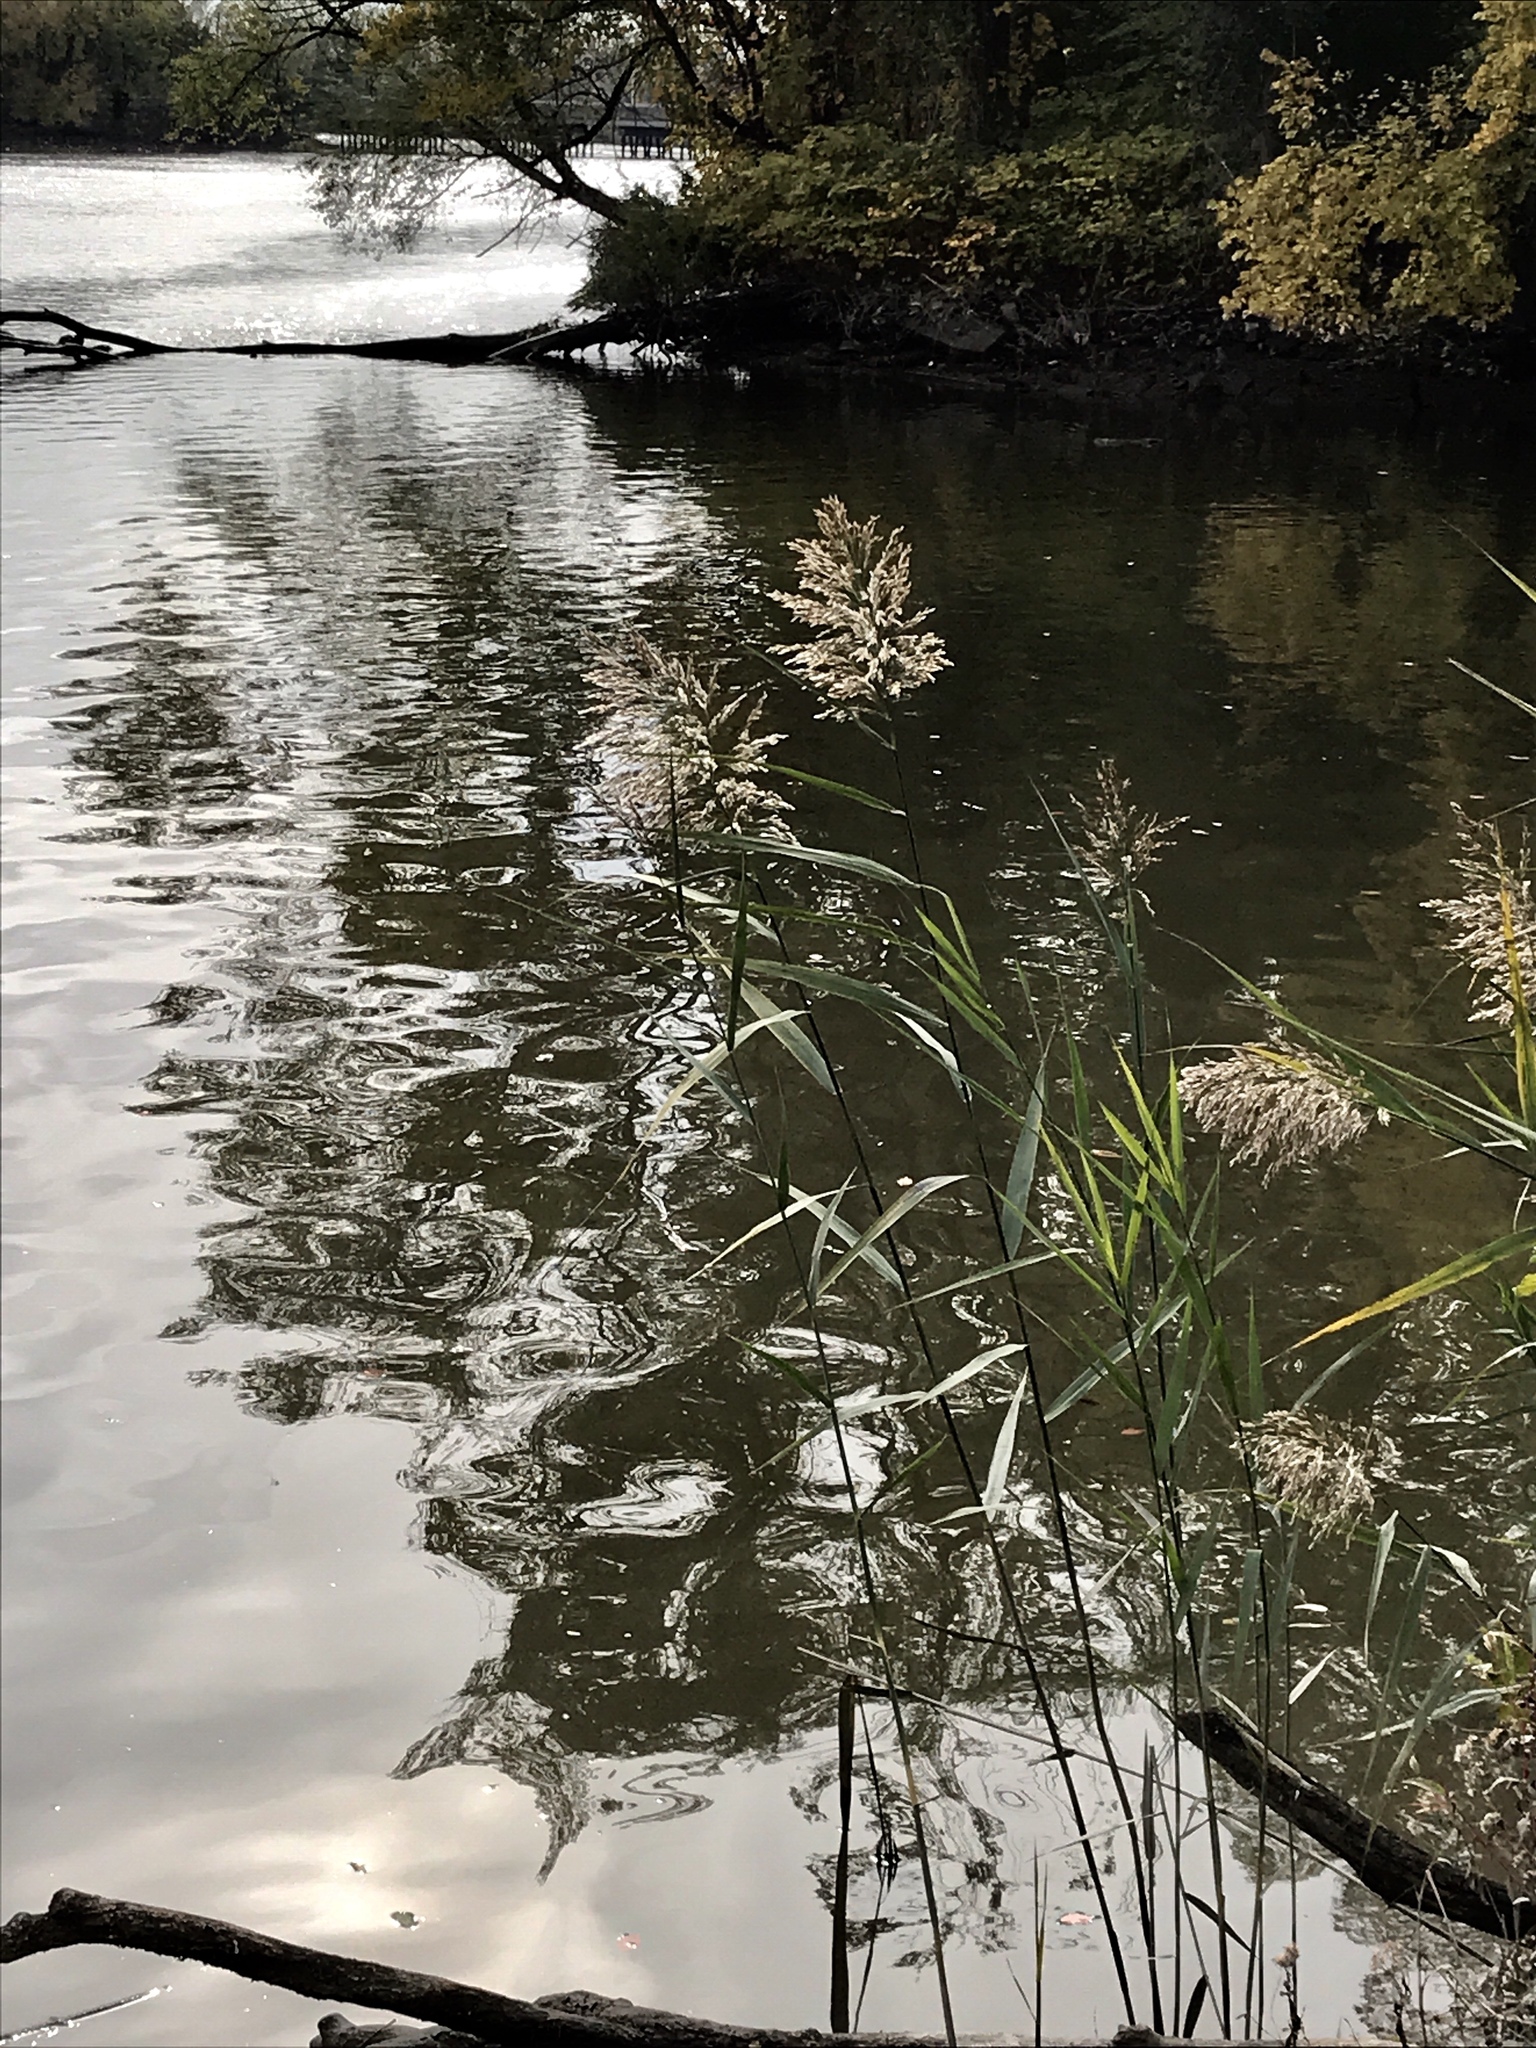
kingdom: Plantae
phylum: Tracheophyta
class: Liliopsida
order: Poales
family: Poaceae
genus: Phragmites
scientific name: Phragmites australis
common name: Common reed
